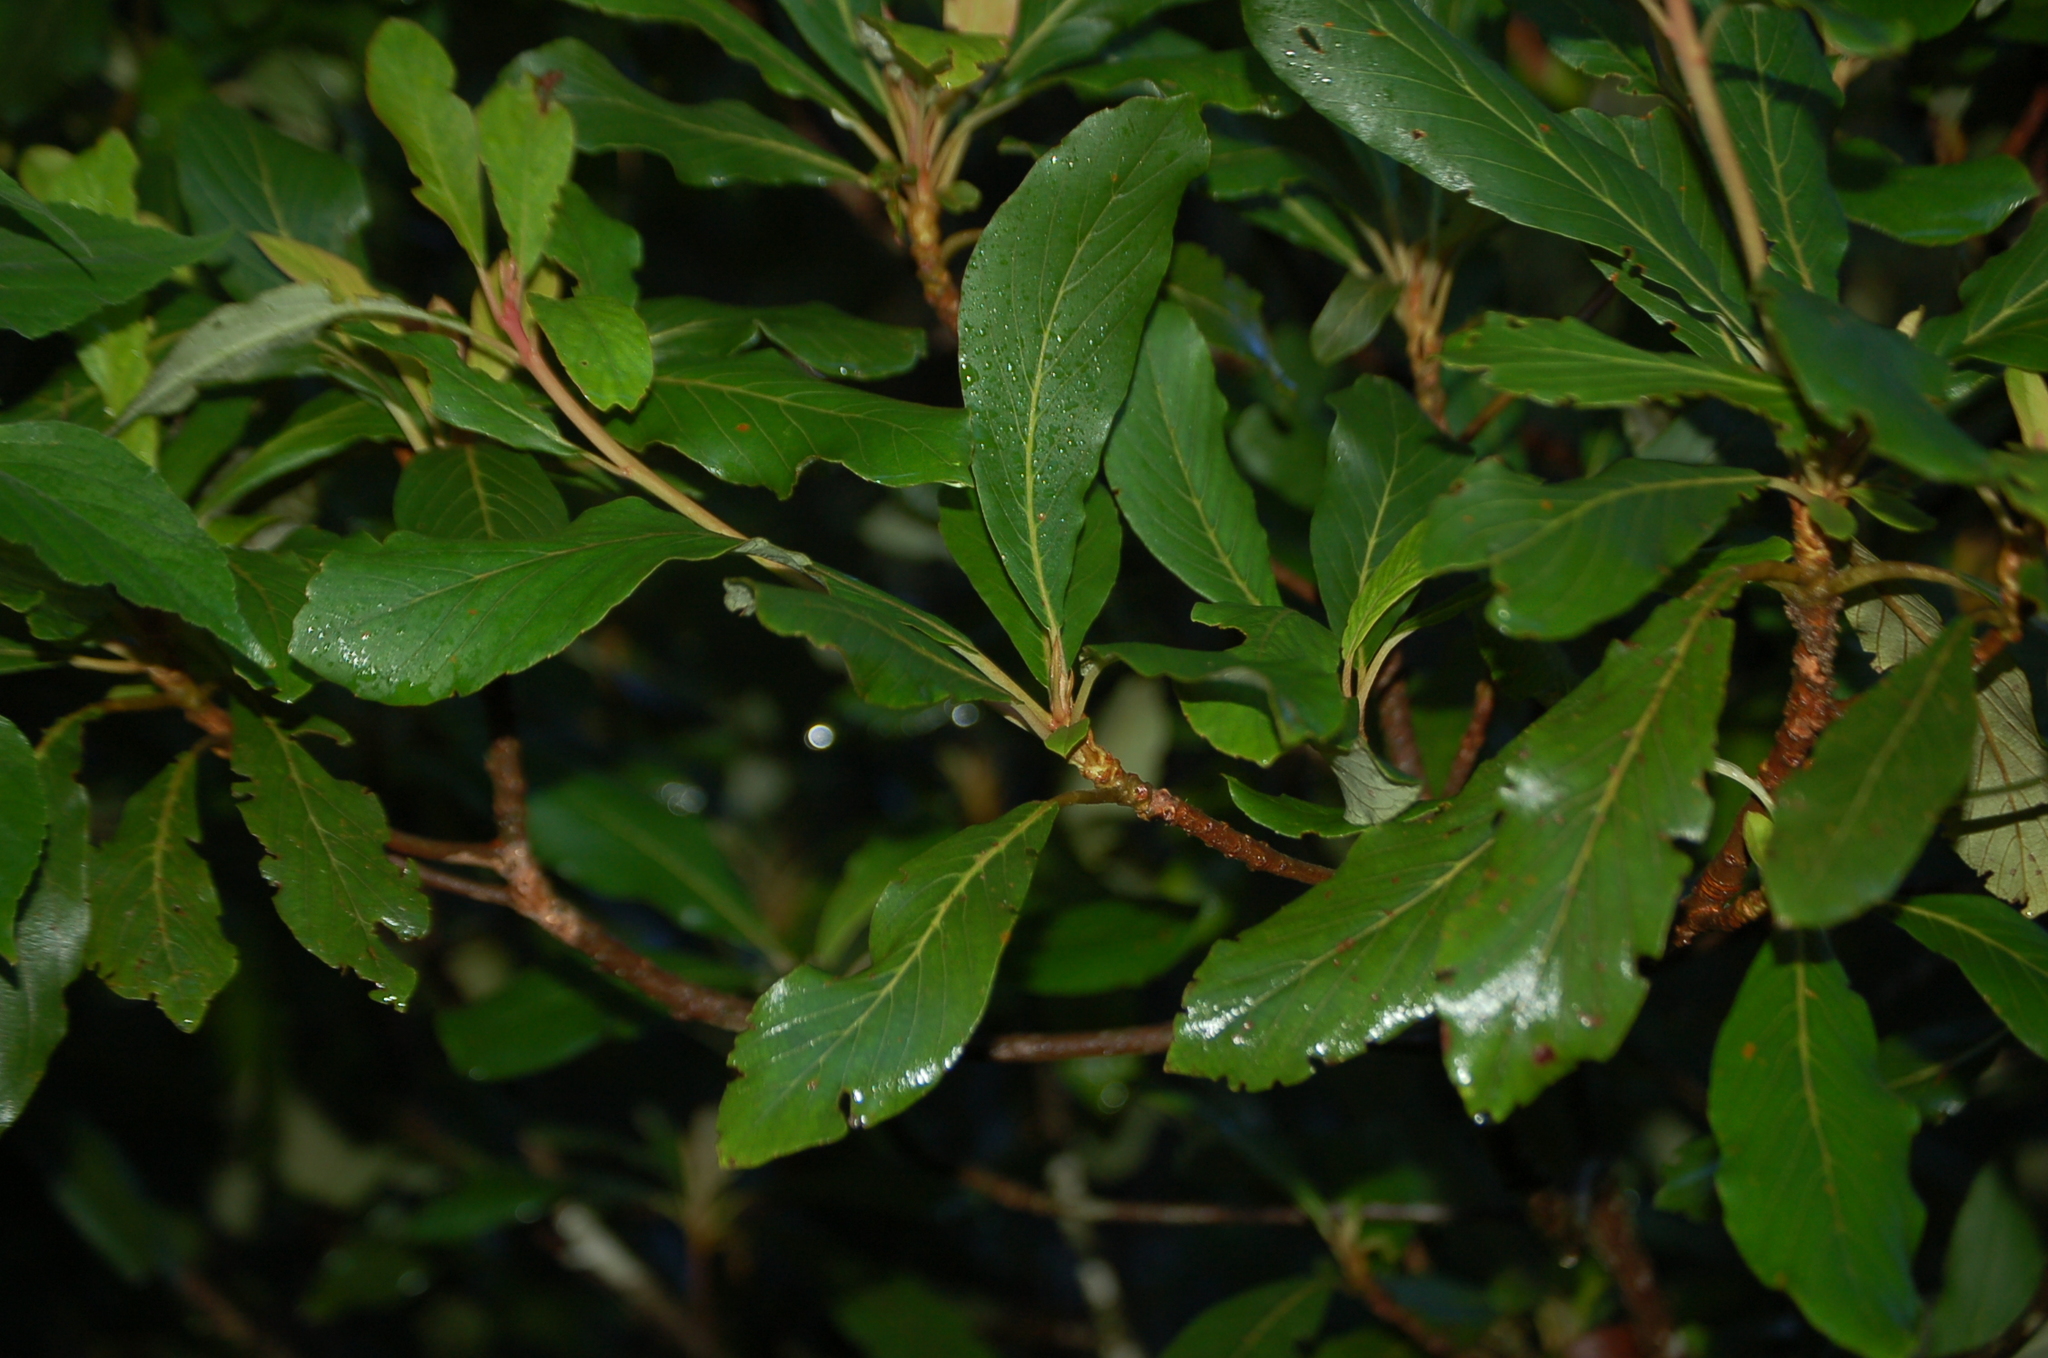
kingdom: Plantae
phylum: Tracheophyta
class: Magnoliopsida
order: Ericales
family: Clethraceae
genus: Clethra
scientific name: Clethra purpusii
